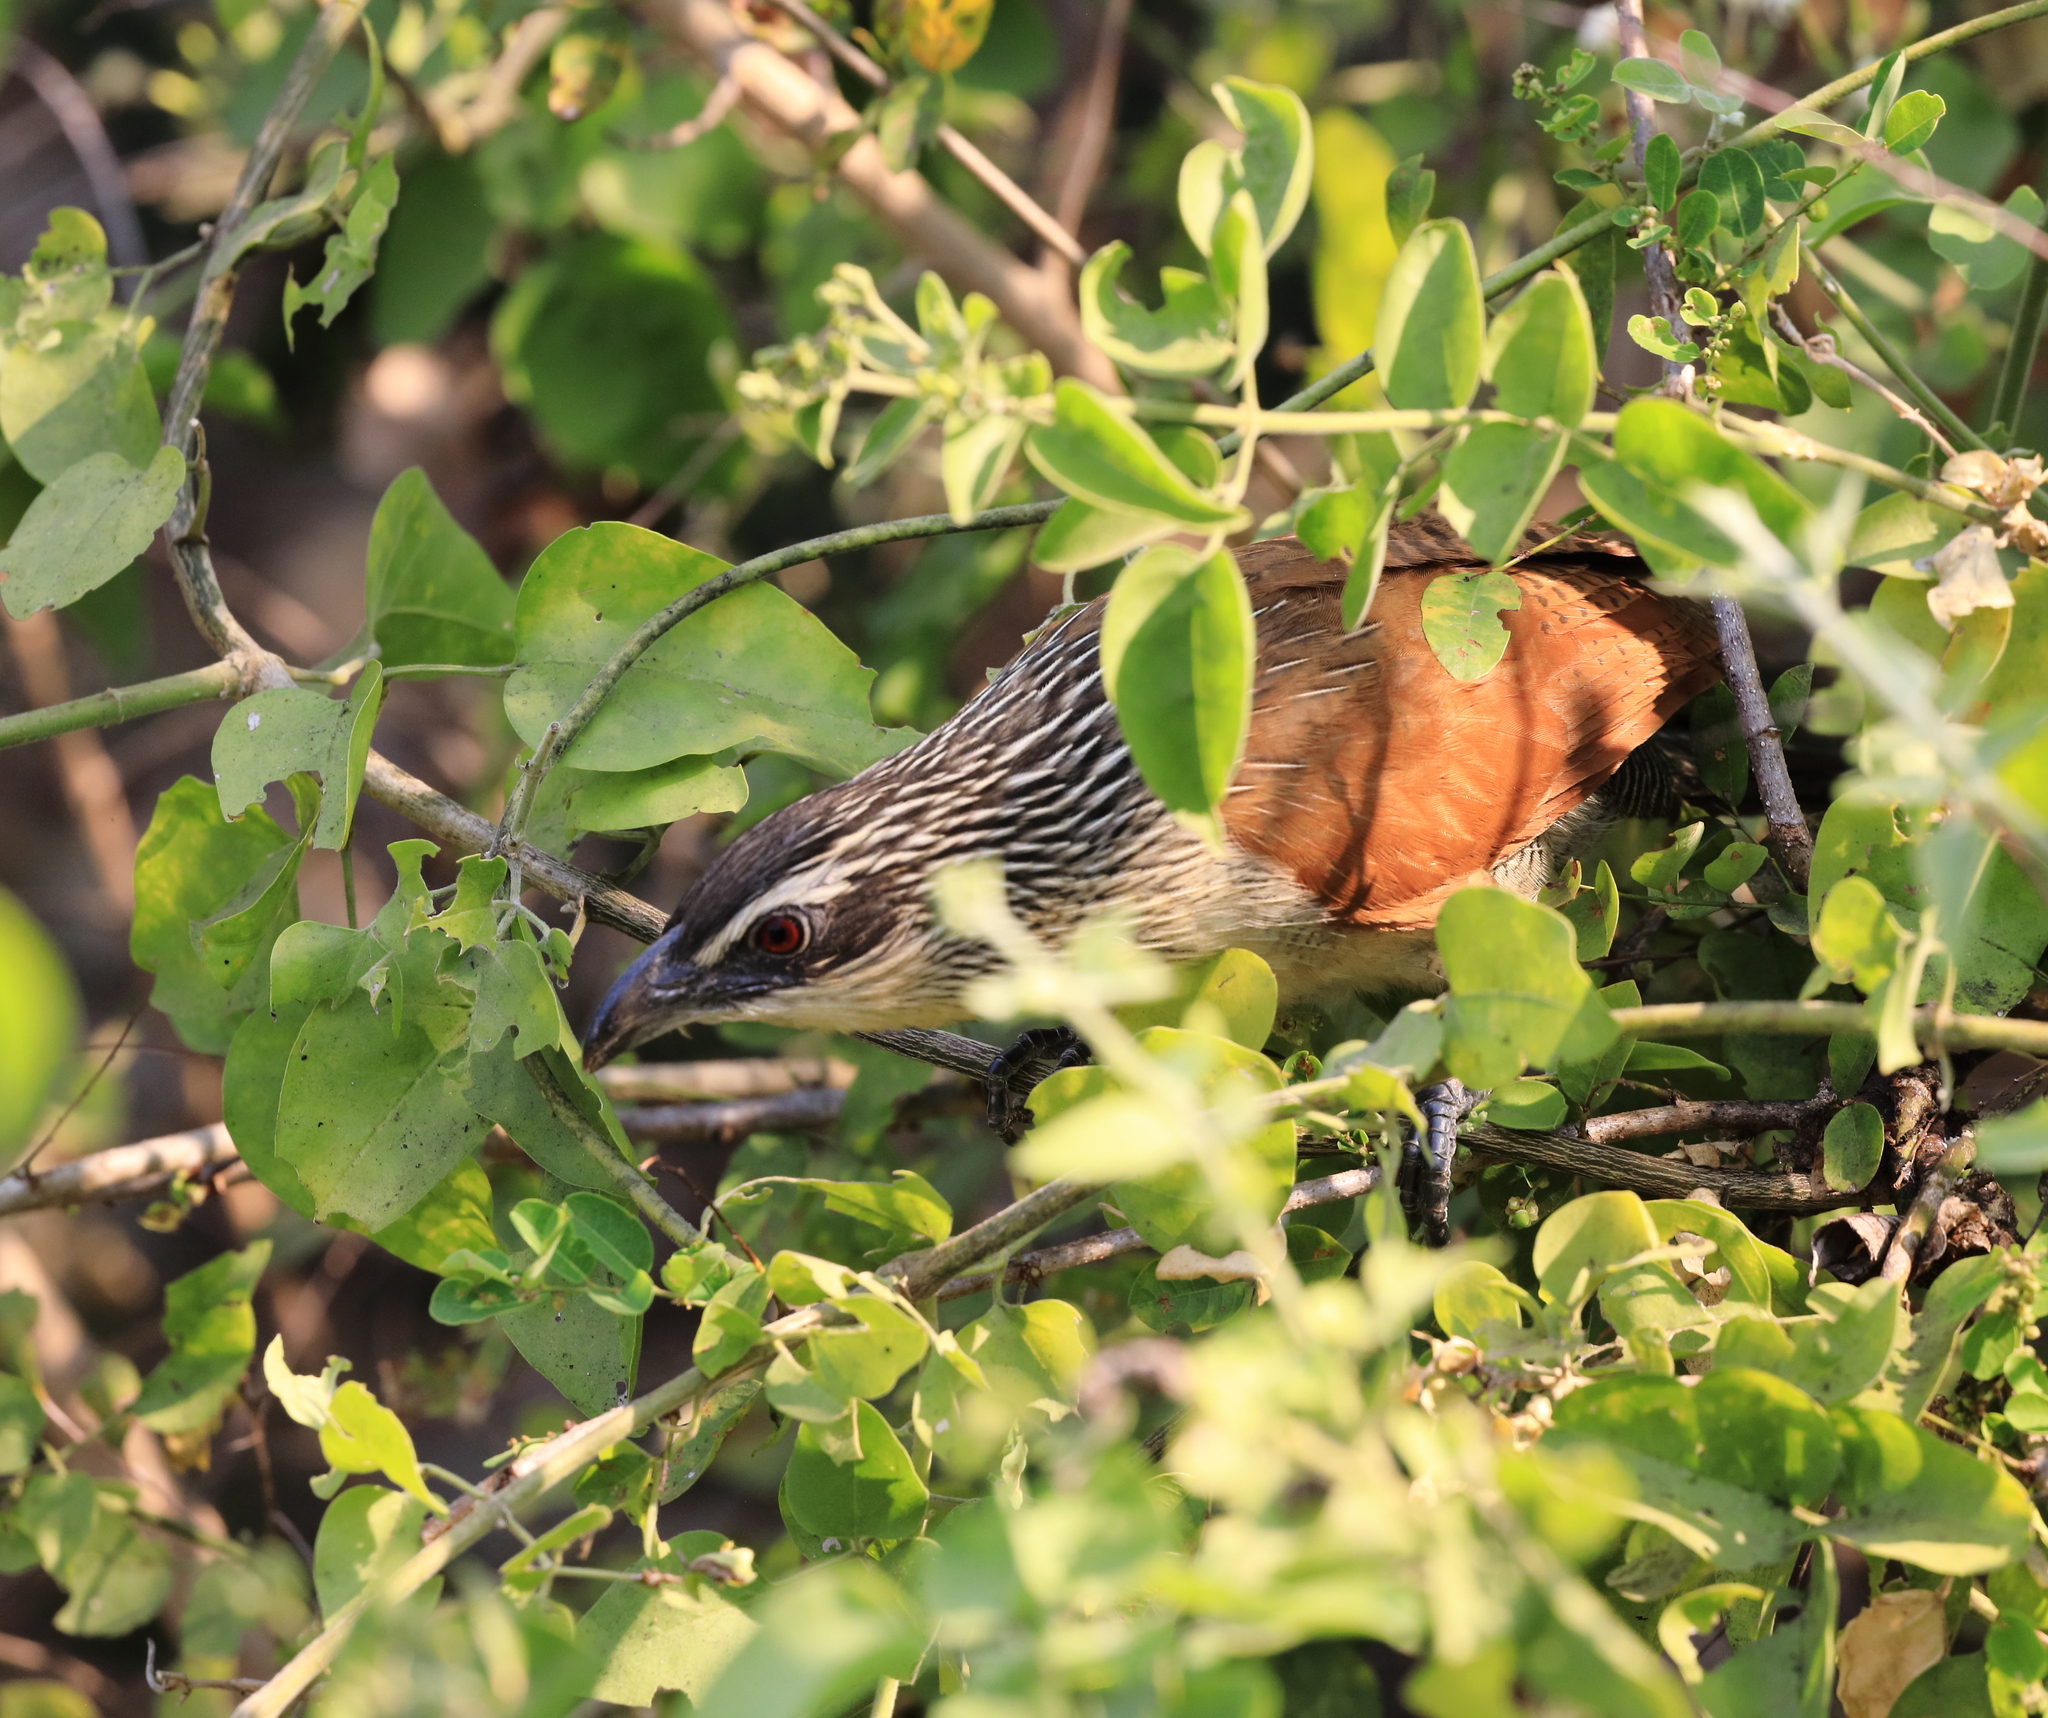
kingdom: Animalia
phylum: Chordata
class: Aves
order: Cuculiformes
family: Cuculidae
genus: Centropus
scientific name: Centropus superciliosus
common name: White-browed coucal
